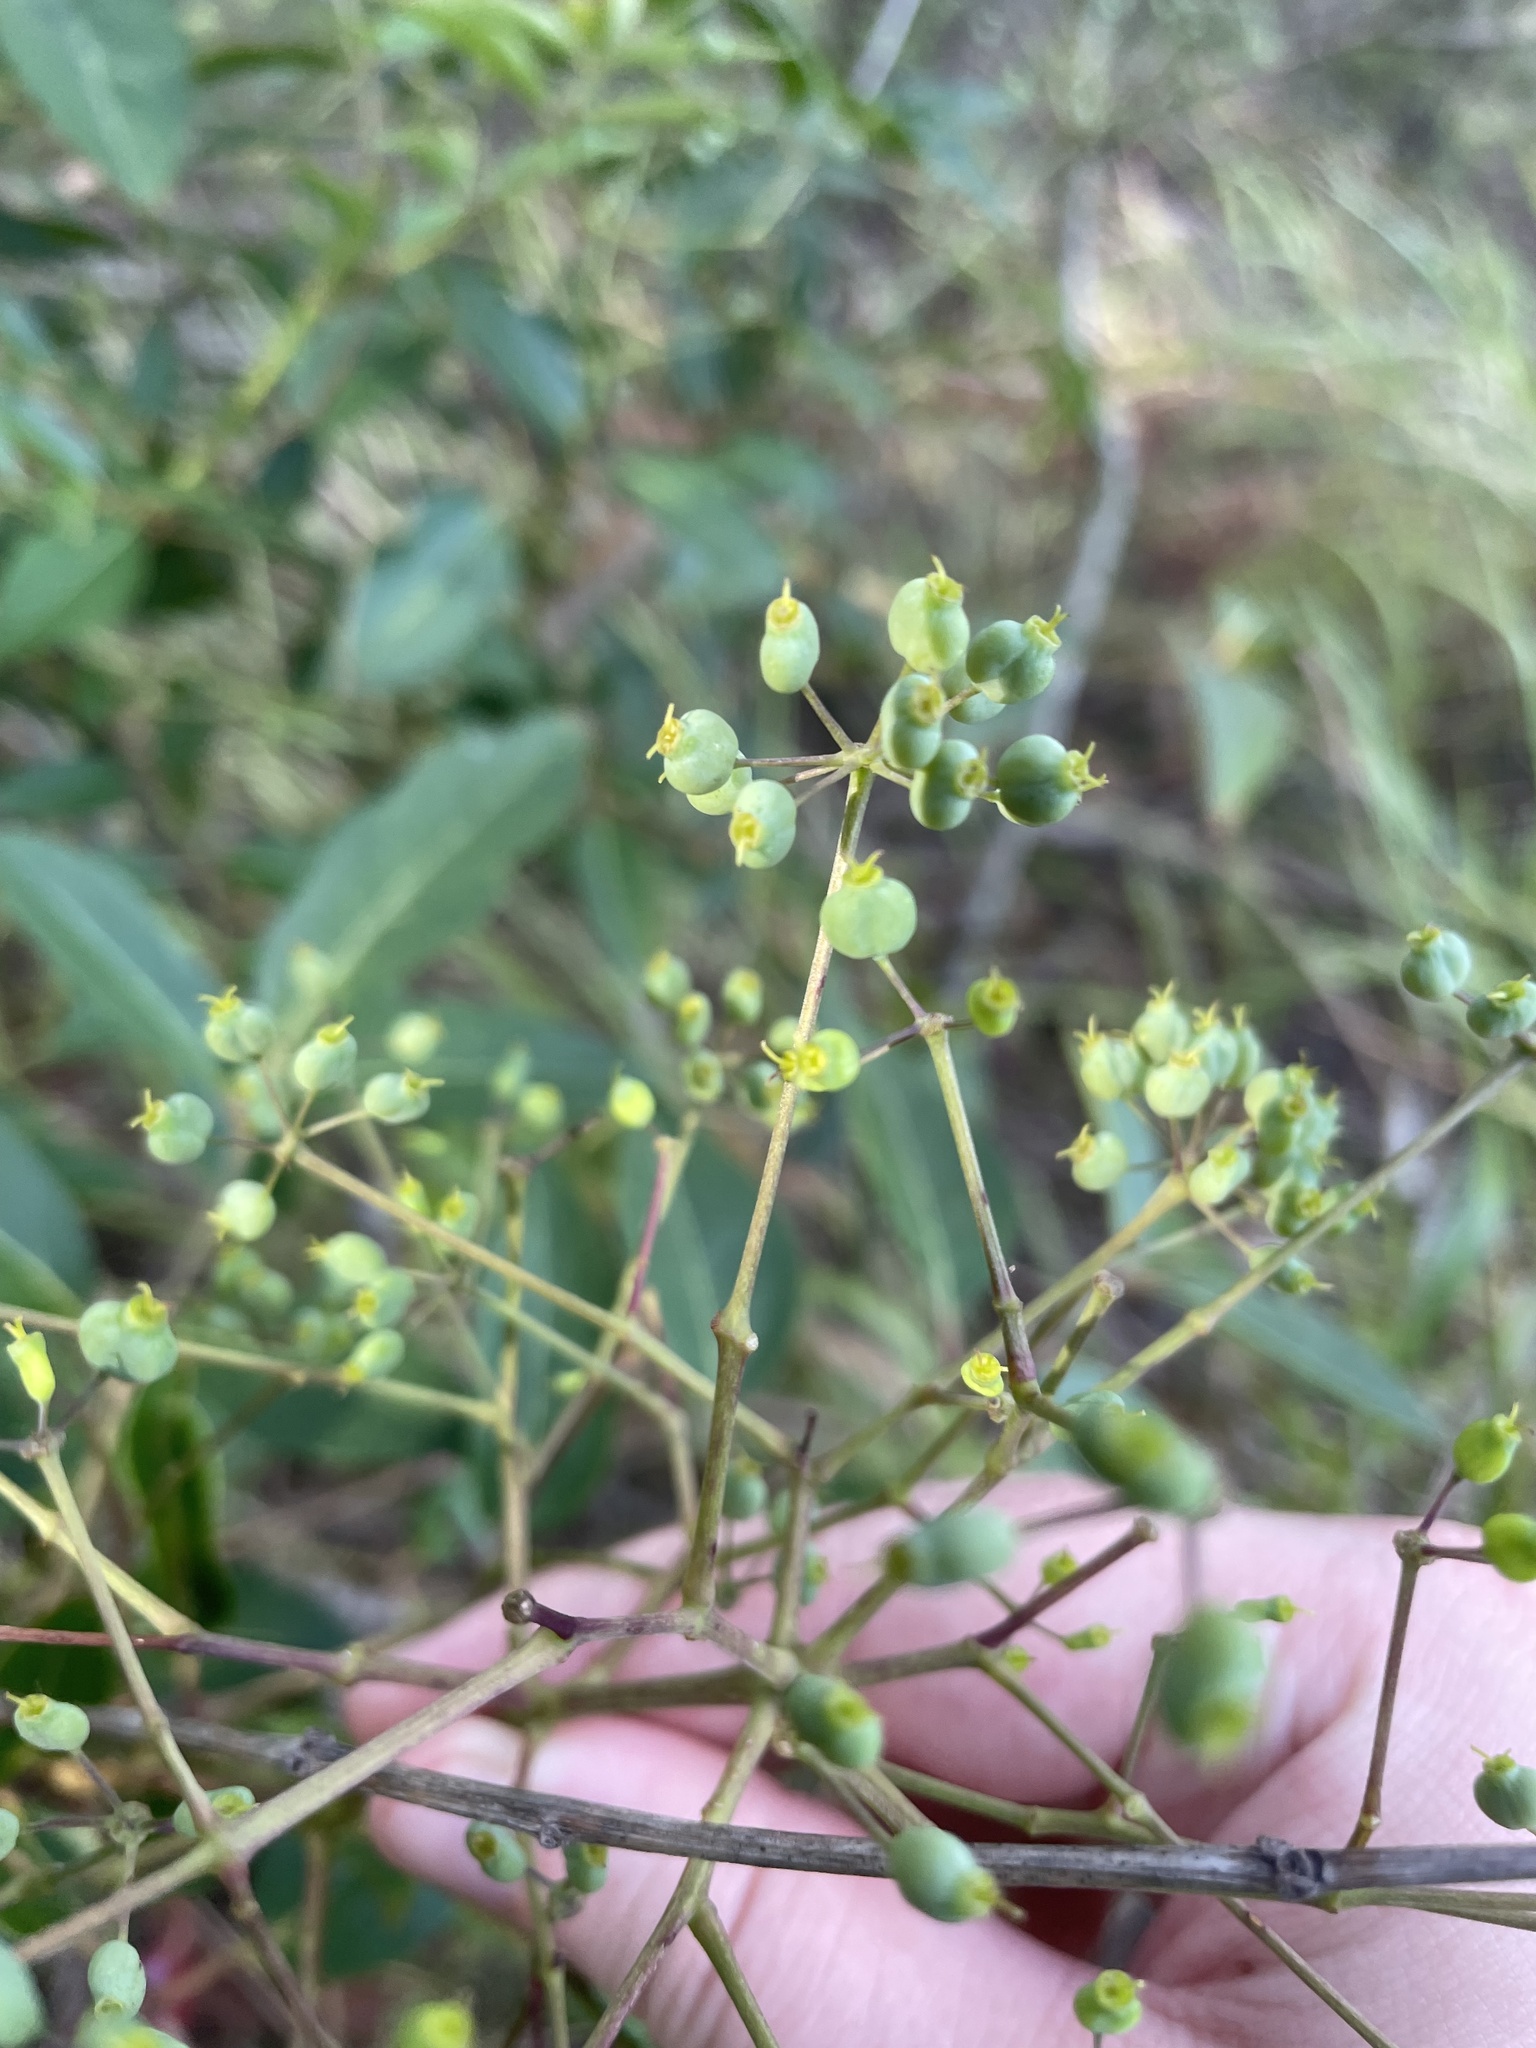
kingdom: Plantae
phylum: Tracheophyta
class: Magnoliopsida
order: Apiales
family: Araliaceae
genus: Polyscias
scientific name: Polyscias sambucifolia
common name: Elderberry-ash
